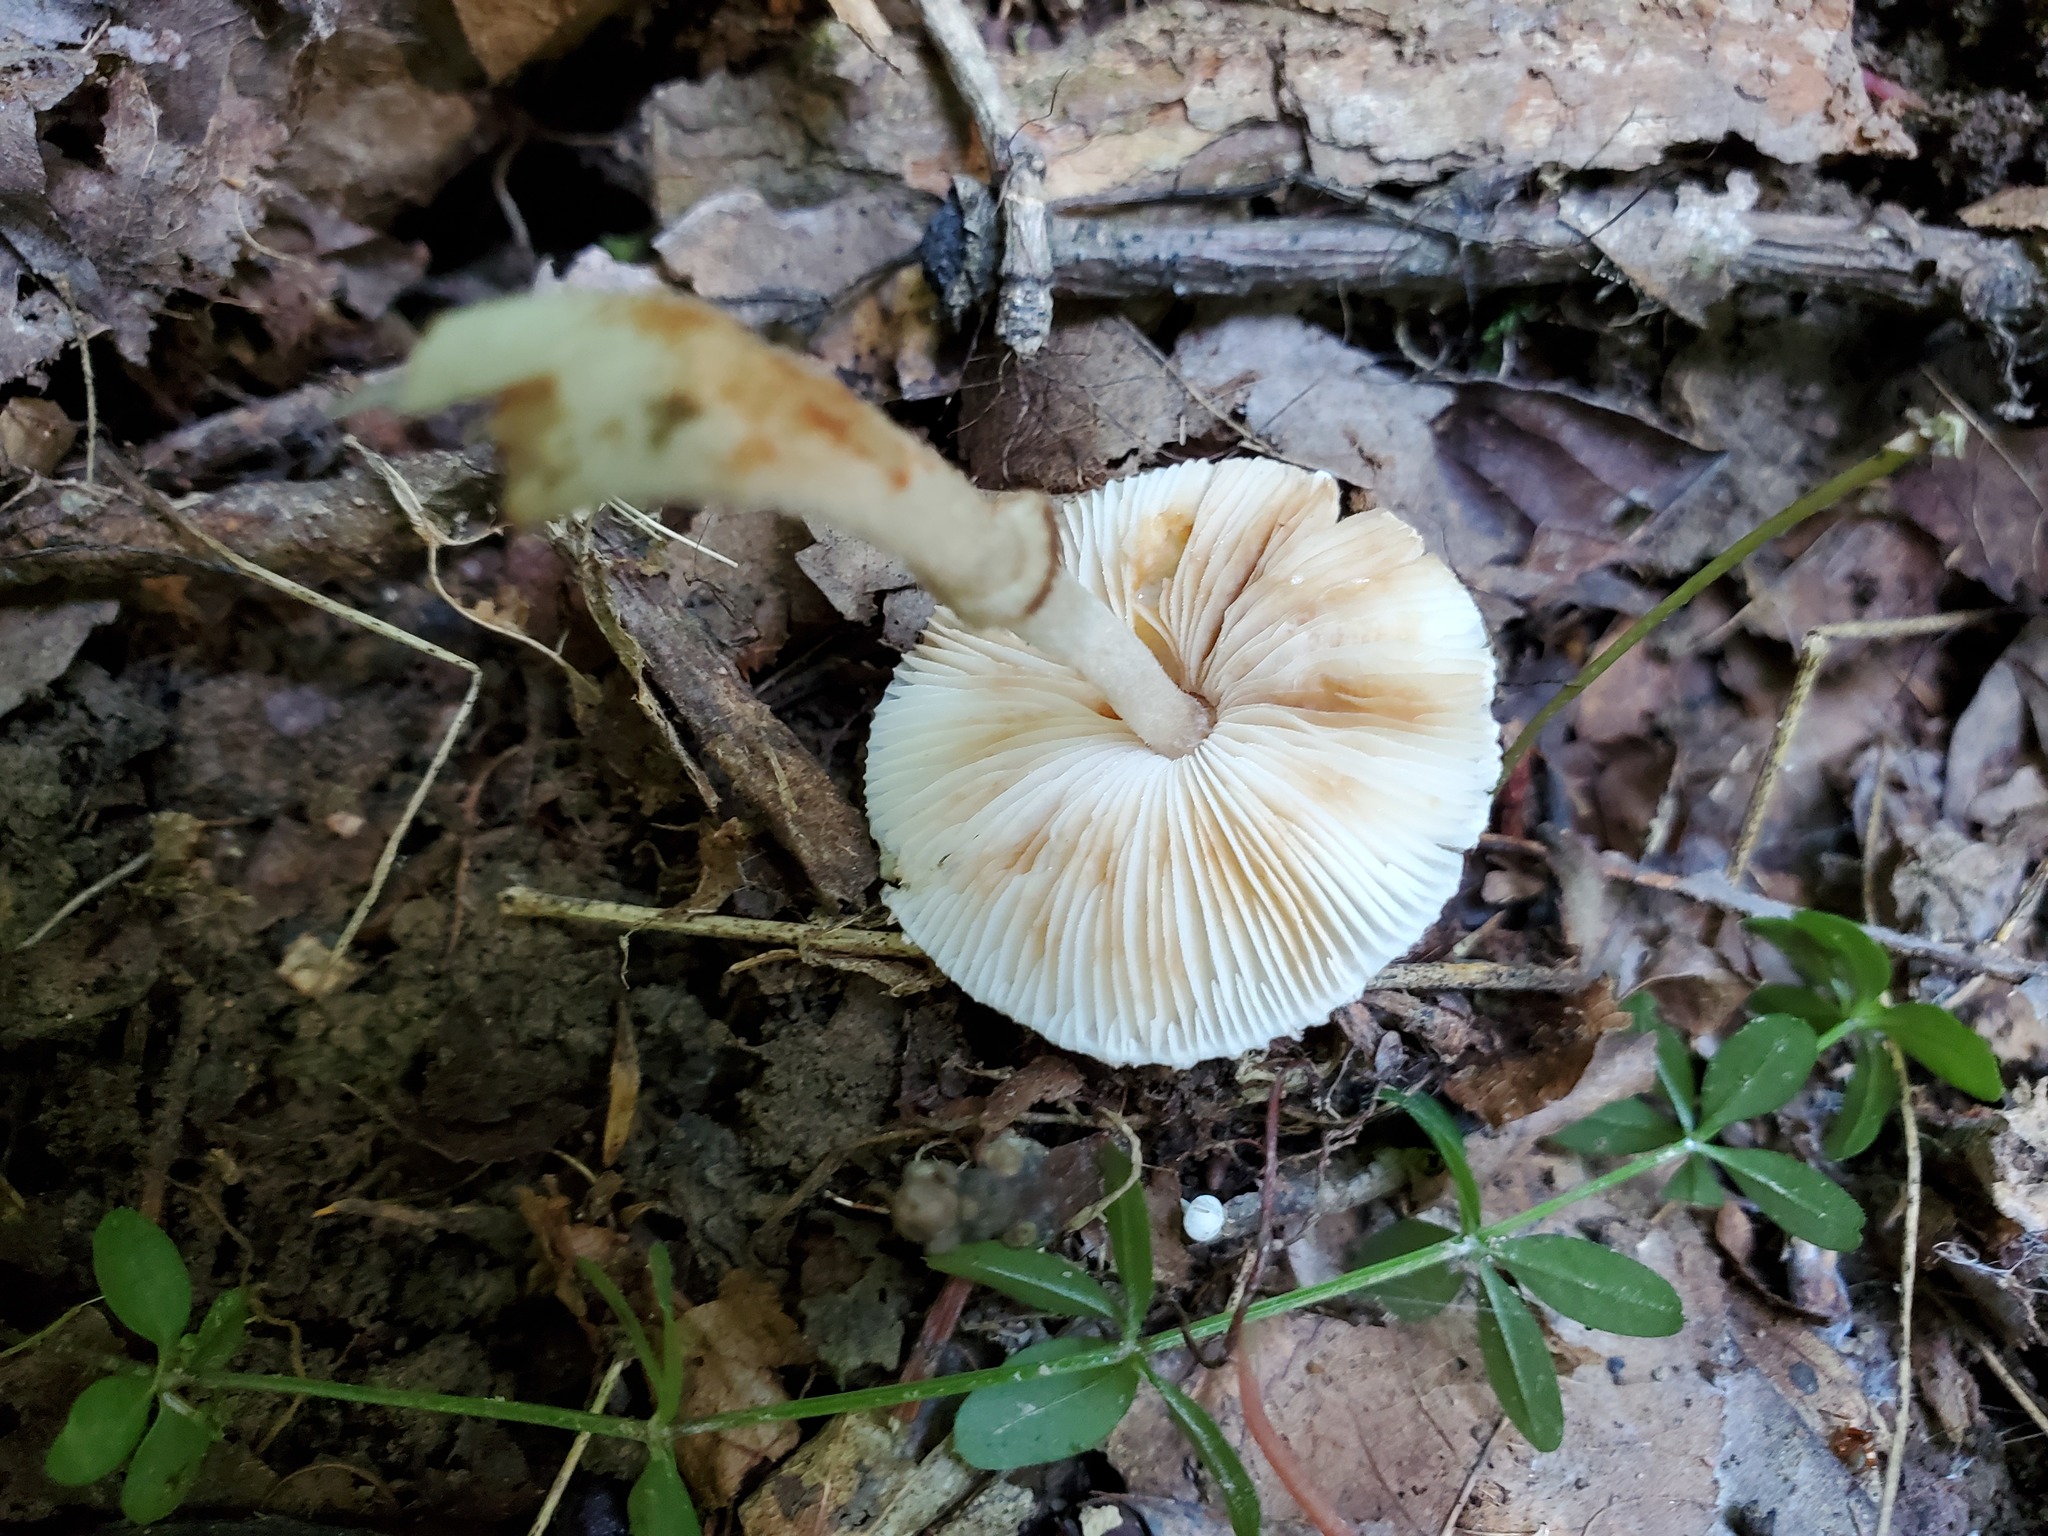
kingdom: Fungi
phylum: Basidiomycota
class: Agaricomycetes
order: Agaricales
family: Agaricaceae
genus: Lepiota
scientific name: Lepiota flammeotincta
